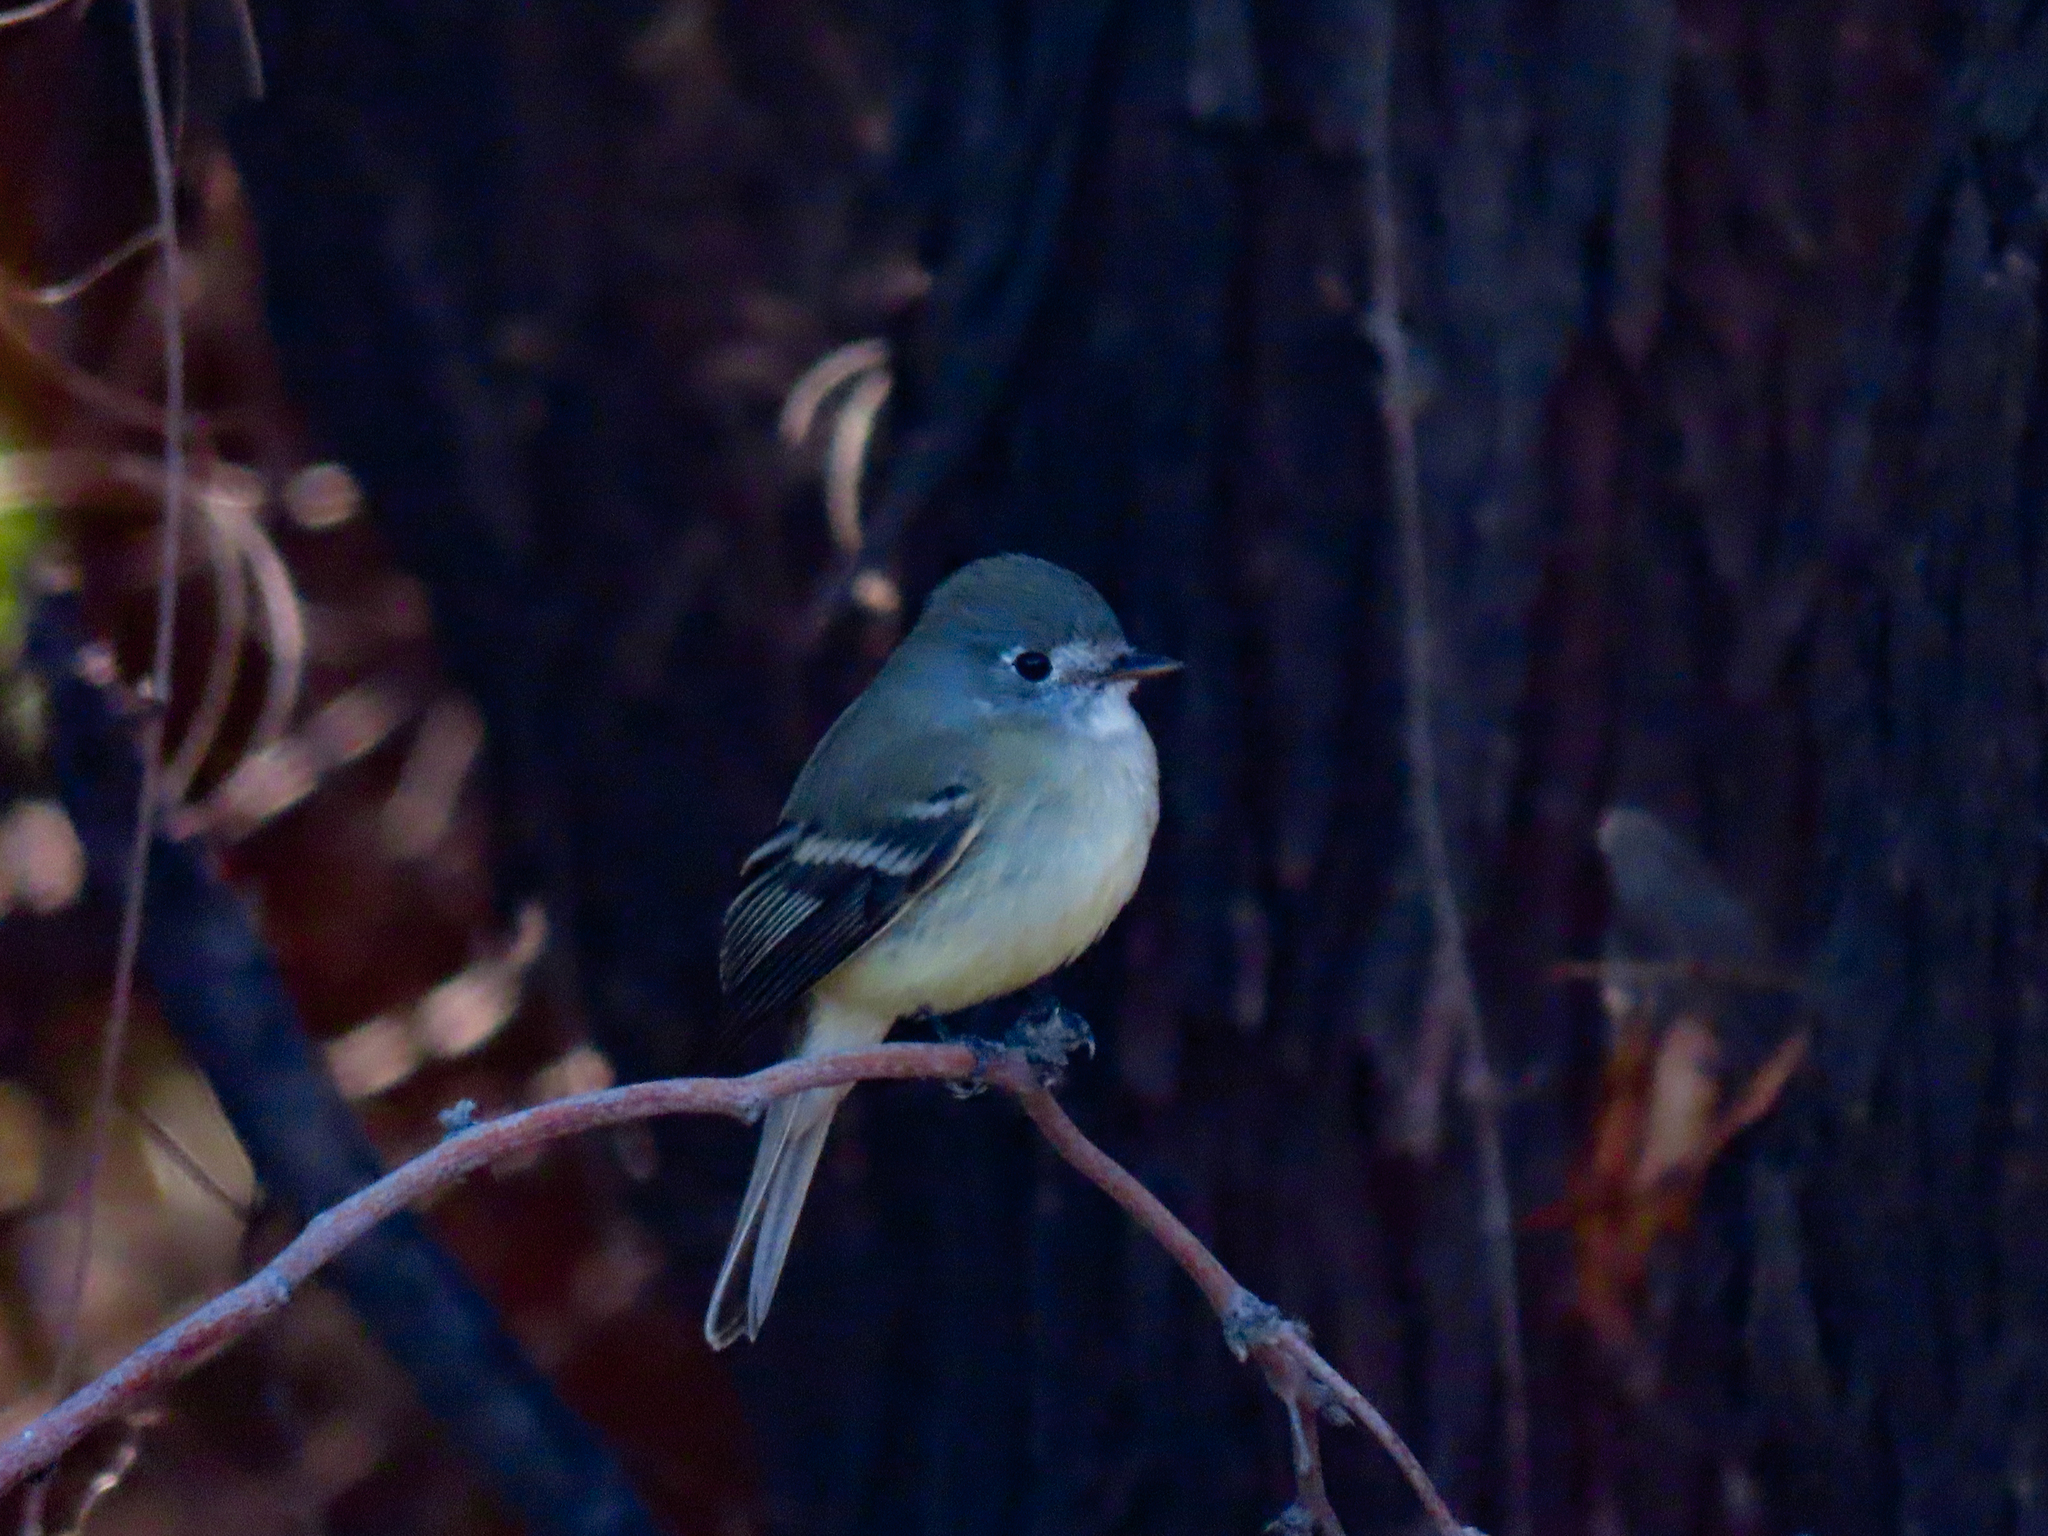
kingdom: Animalia
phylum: Chordata
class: Aves
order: Passeriformes
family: Tyrannidae
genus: Empidonax
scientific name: Empidonax oberholseri
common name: Dusky flycatcher
